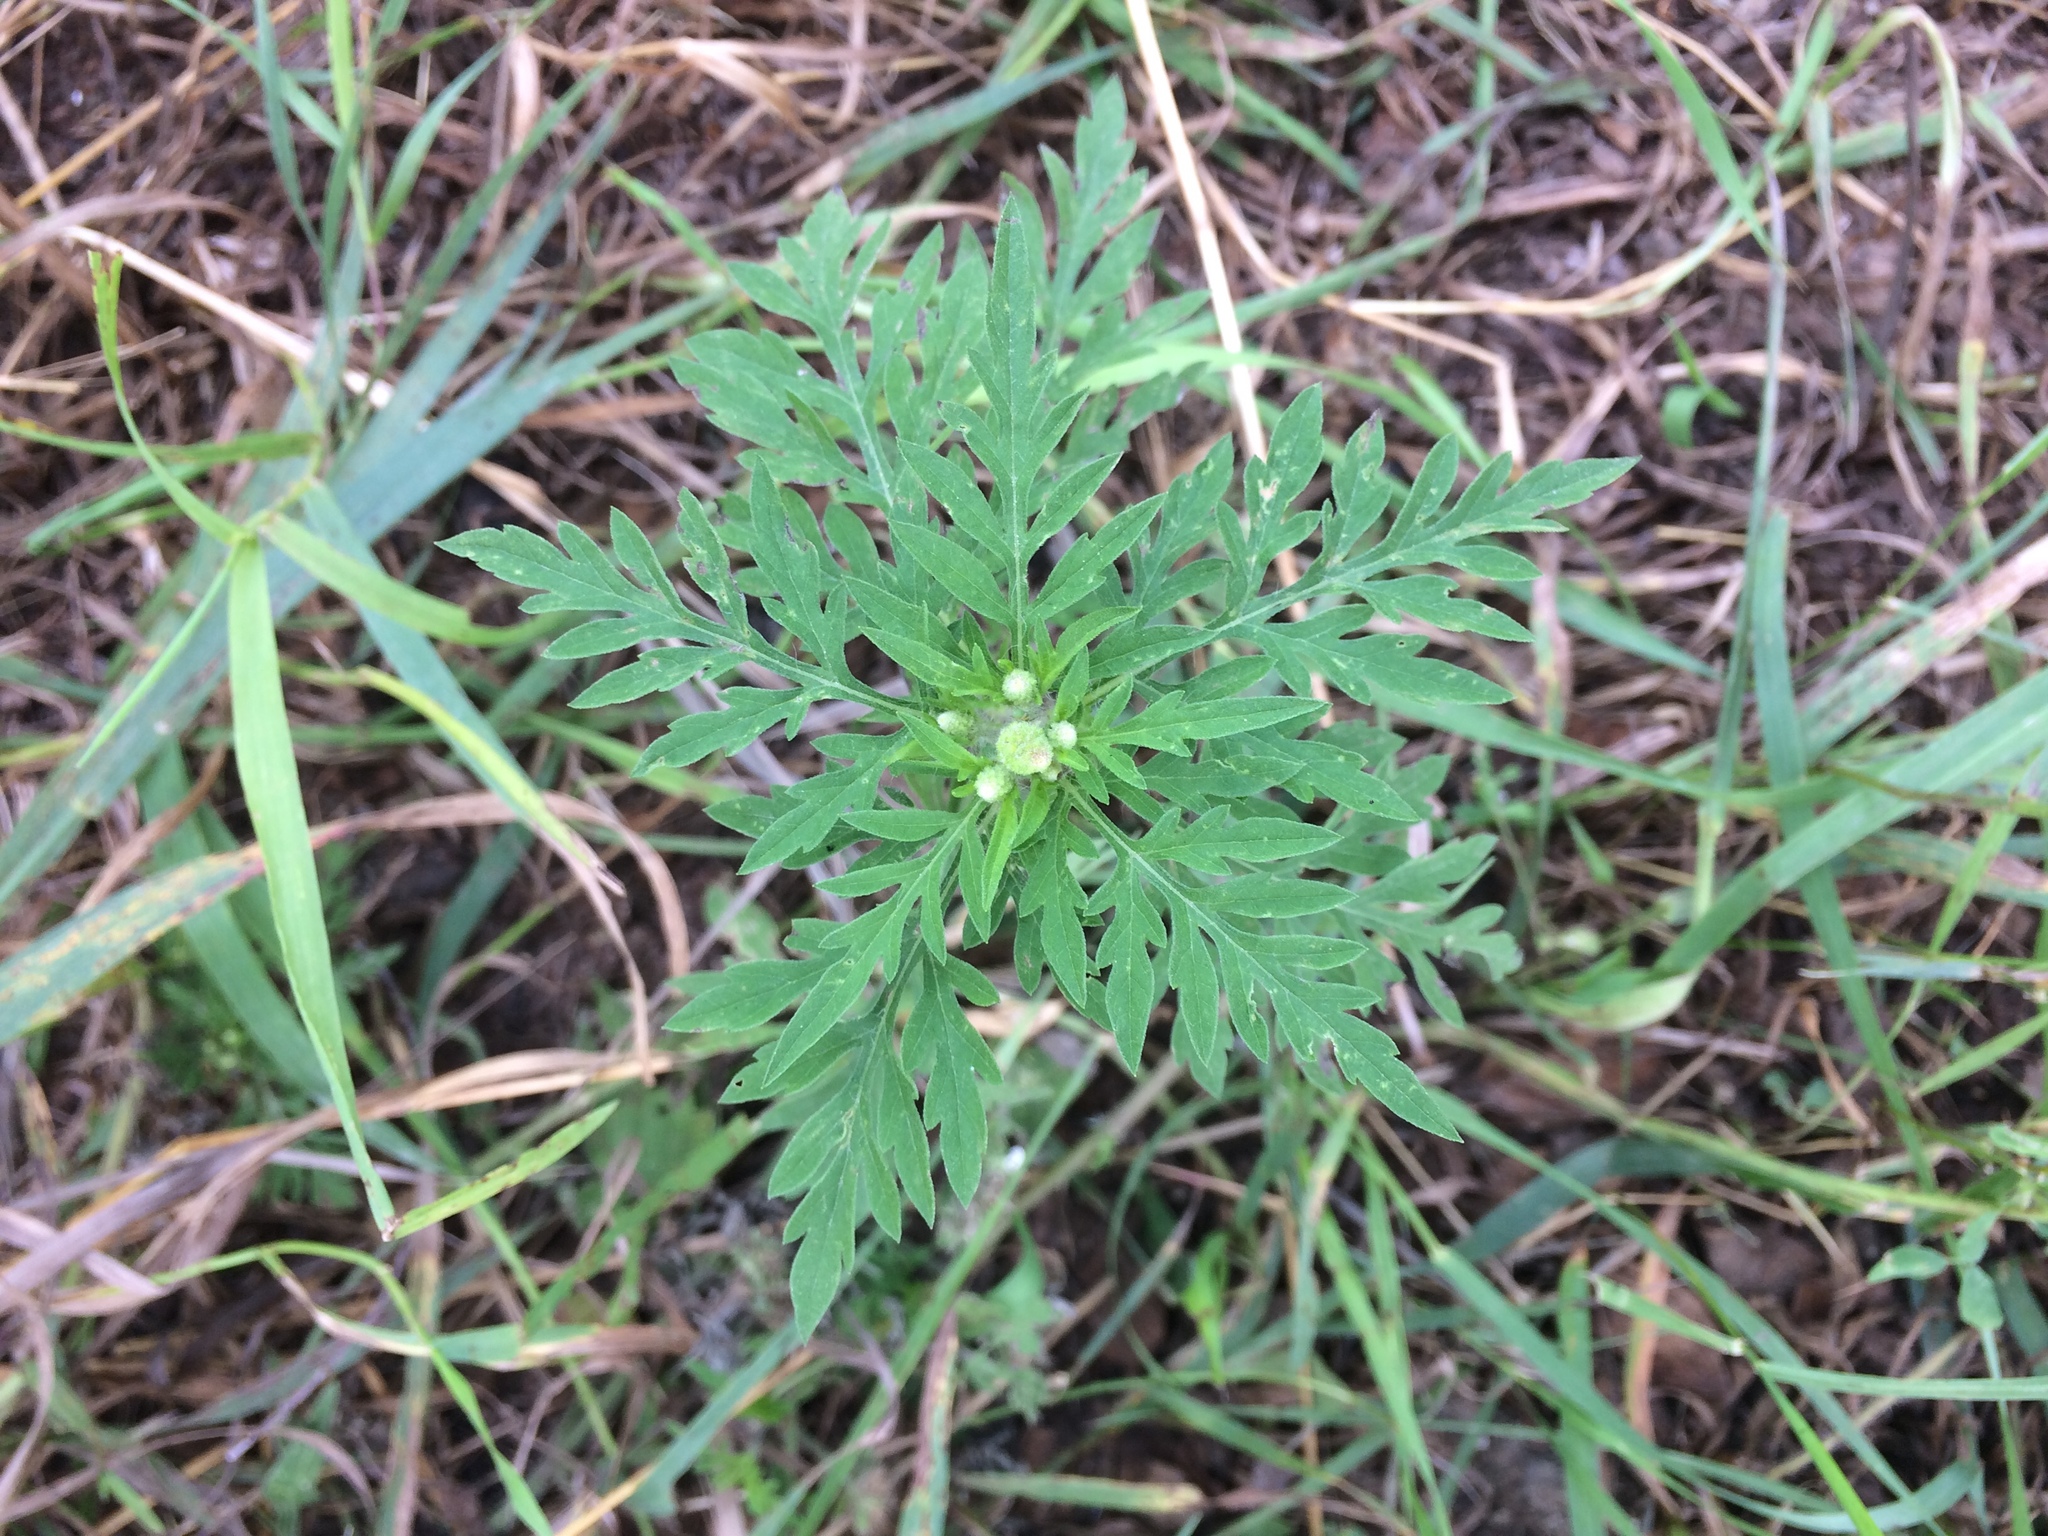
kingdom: Plantae
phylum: Tracheophyta
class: Magnoliopsida
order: Asterales
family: Asteraceae
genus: Ambrosia
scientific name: Ambrosia artemisiifolia
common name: Annual ragweed
